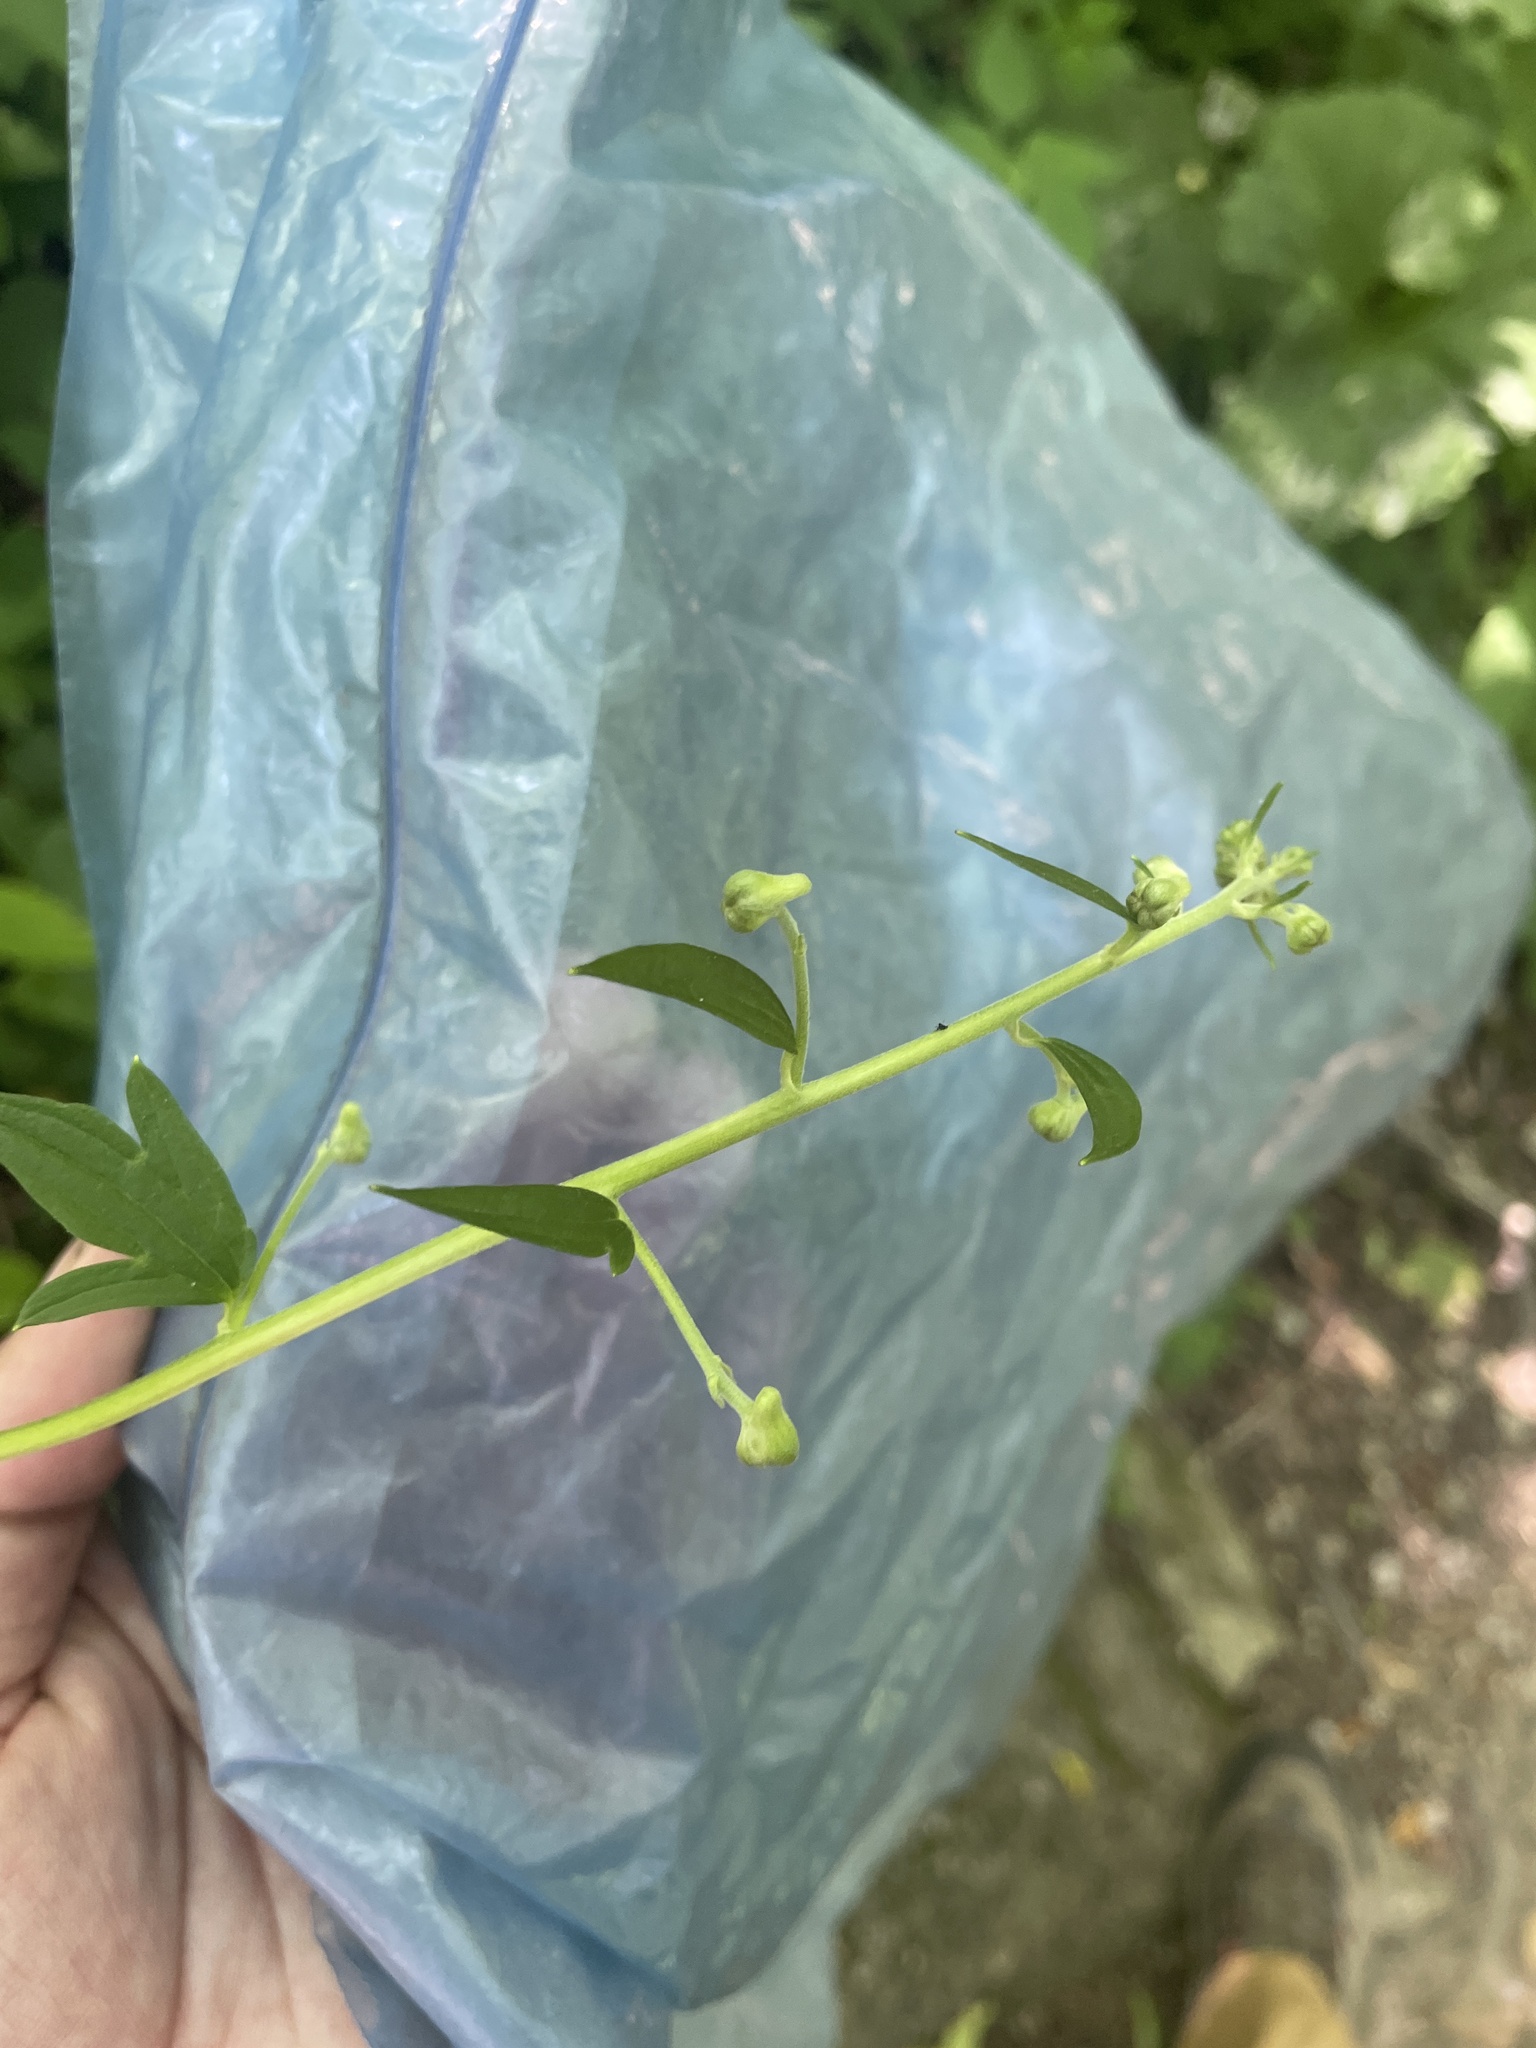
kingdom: Plantae
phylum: Tracheophyta
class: Magnoliopsida
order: Ranunculales
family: Ranunculaceae
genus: Aconitum
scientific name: Aconitum reclinatum
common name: Trailing wolfsbane
